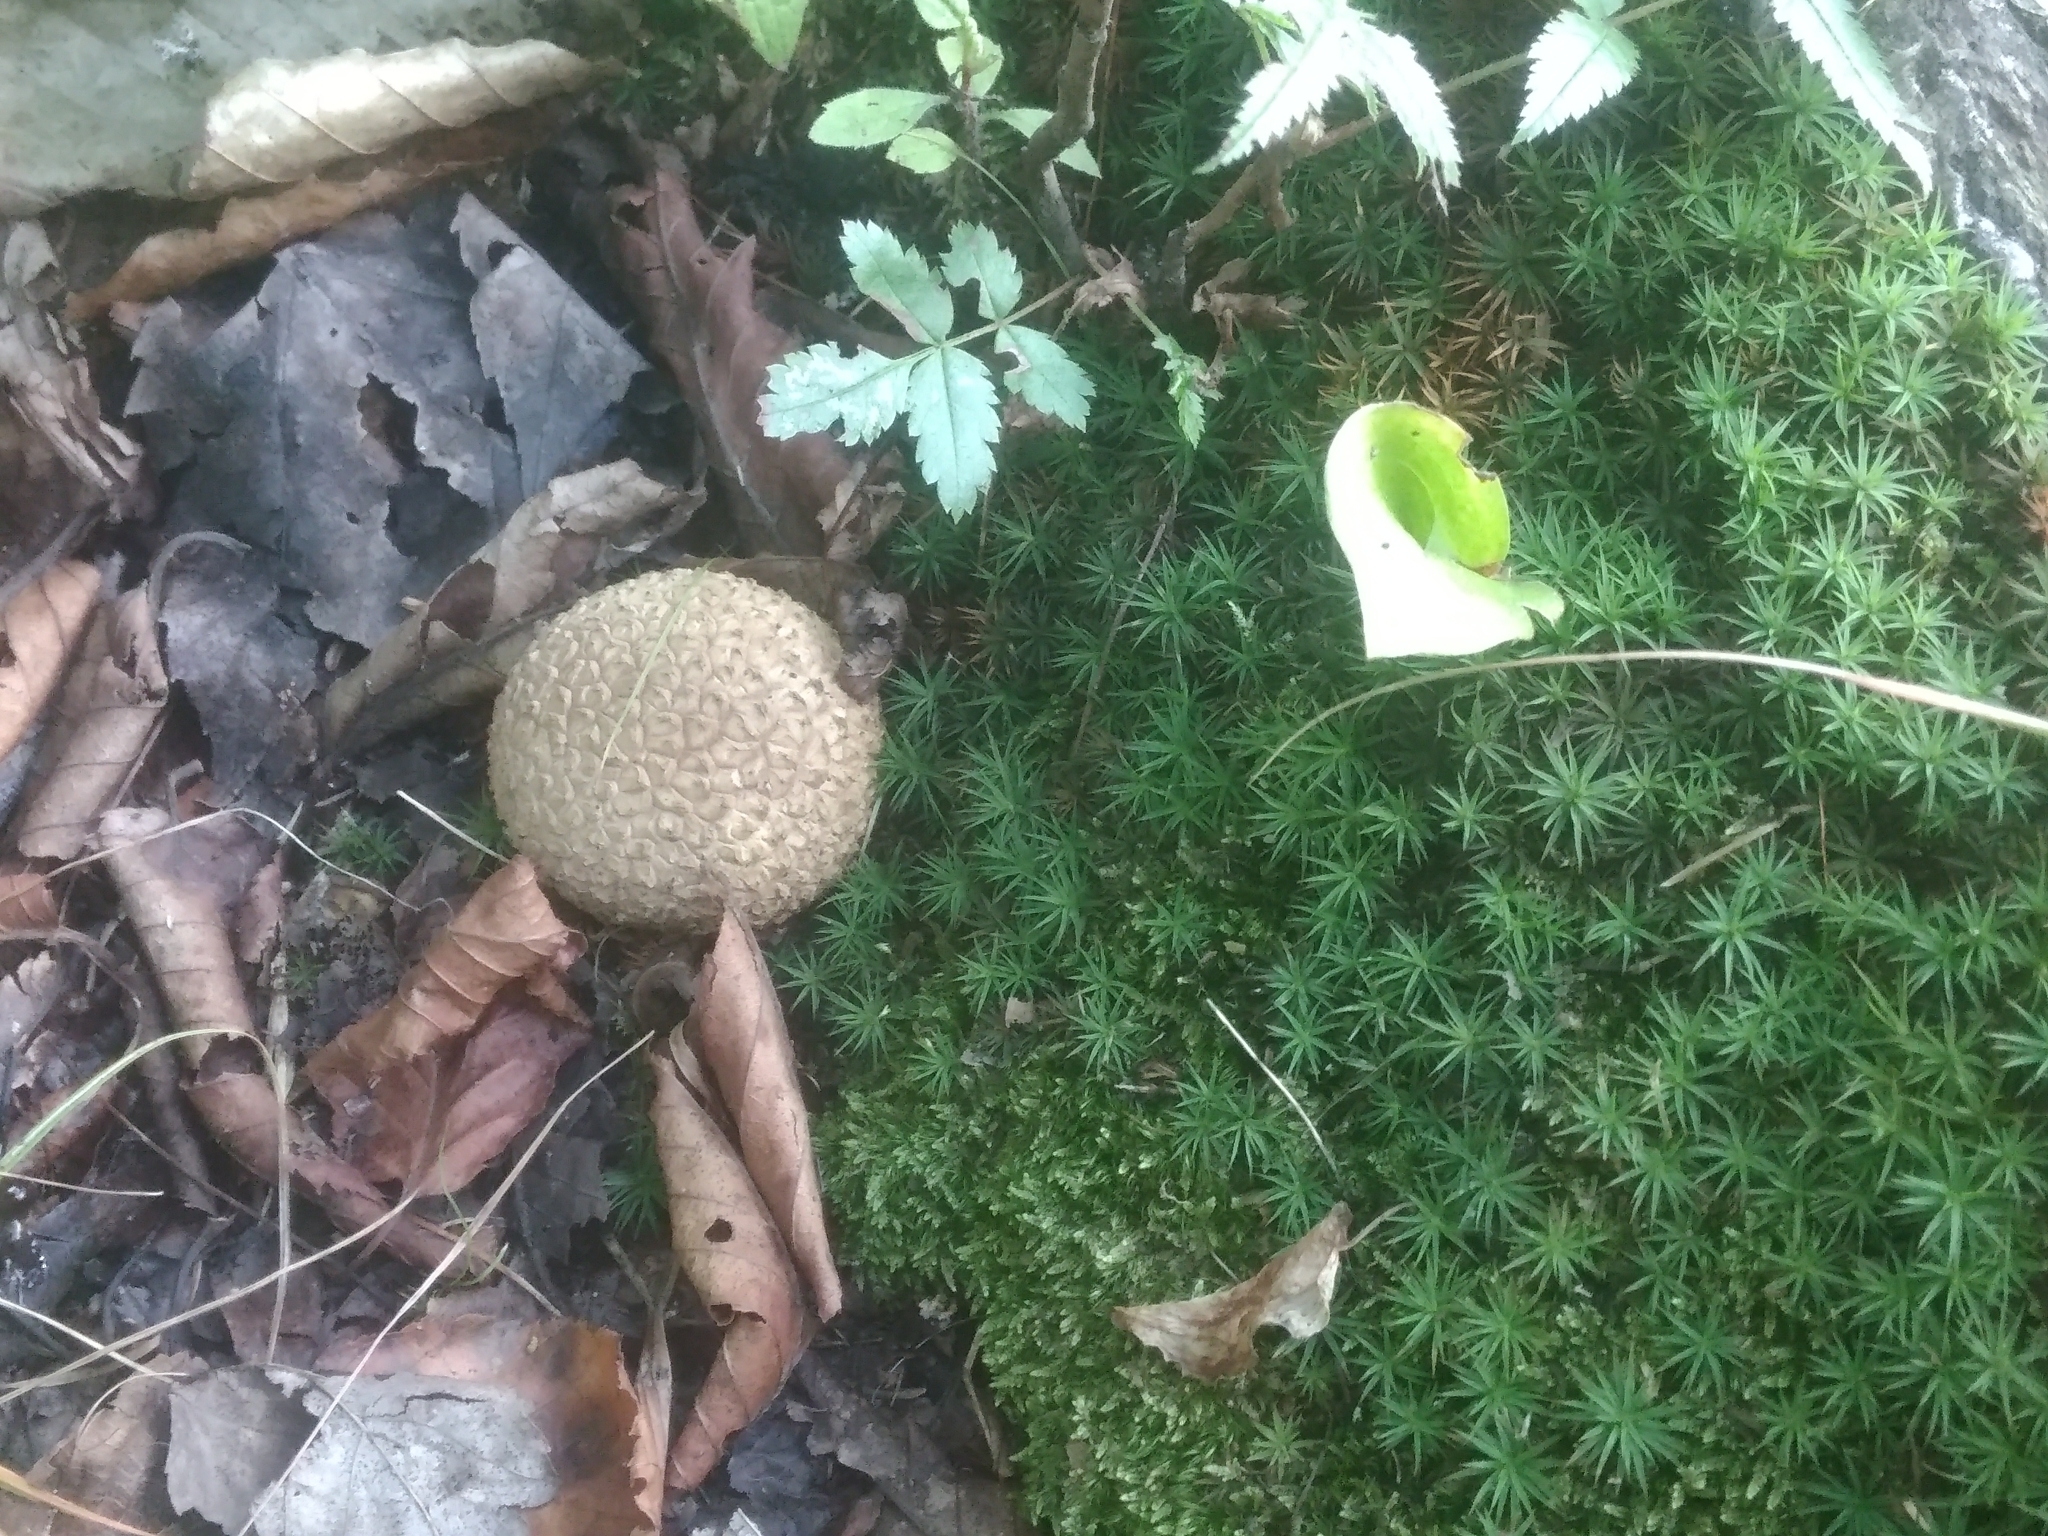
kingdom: Fungi
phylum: Basidiomycota
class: Agaricomycetes
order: Boletales
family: Sclerodermataceae
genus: Scleroderma
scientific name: Scleroderma citrinum
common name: Common earthball
